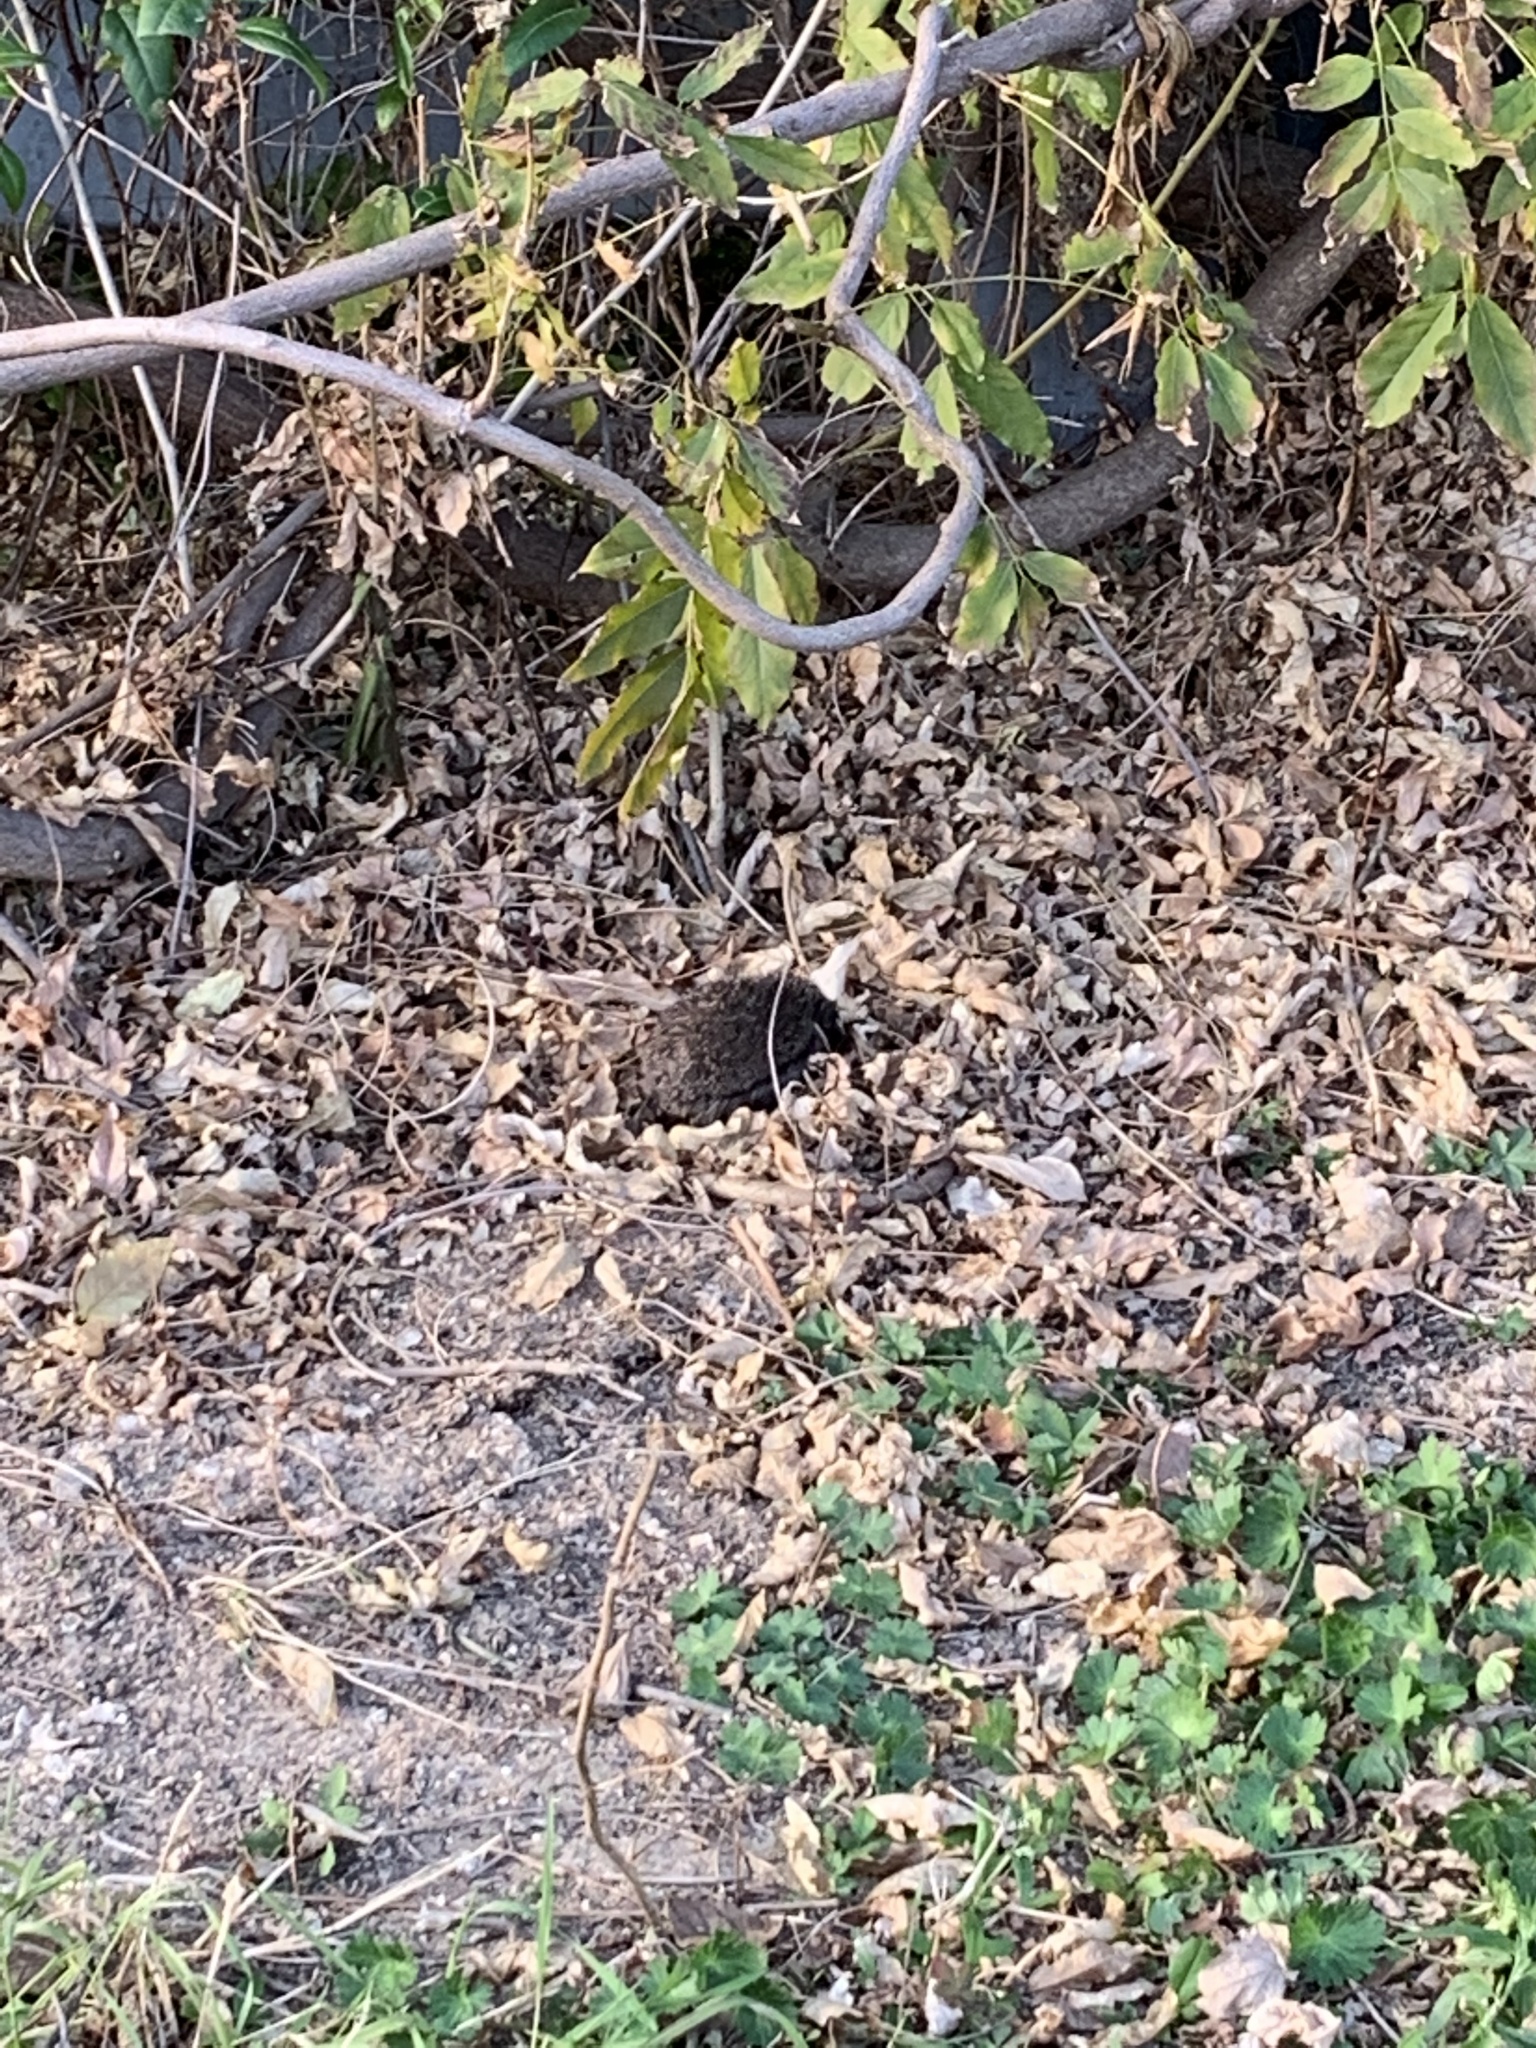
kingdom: Animalia
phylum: Chordata
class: Mammalia
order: Erinaceomorpha
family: Erinaceidae
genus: Erinaceus
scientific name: Erinaceus roumanicus
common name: Northern white-breasted hedgehog
